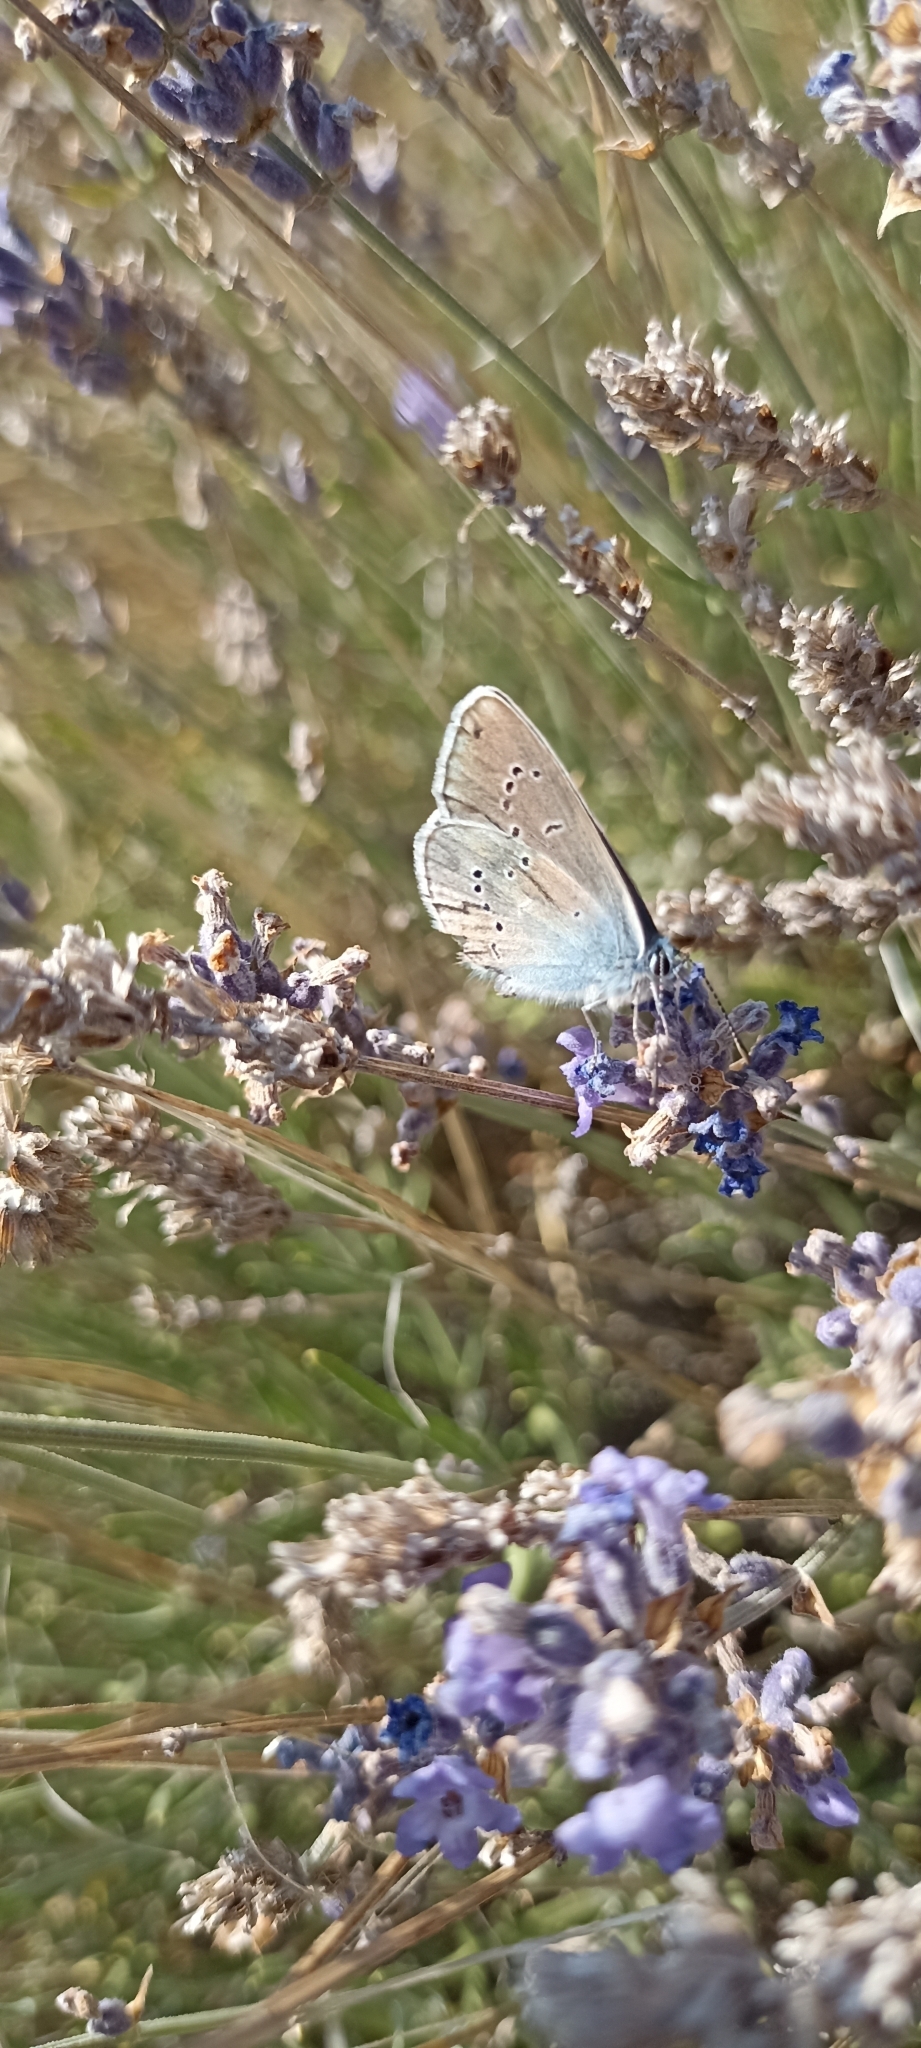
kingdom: Animalia
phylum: Arthropoda
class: Insecta
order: Lepidoptera
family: Lycaenidae
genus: Glaucopsyche
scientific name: Glaucopsyche alexis
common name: Green-underside blue
